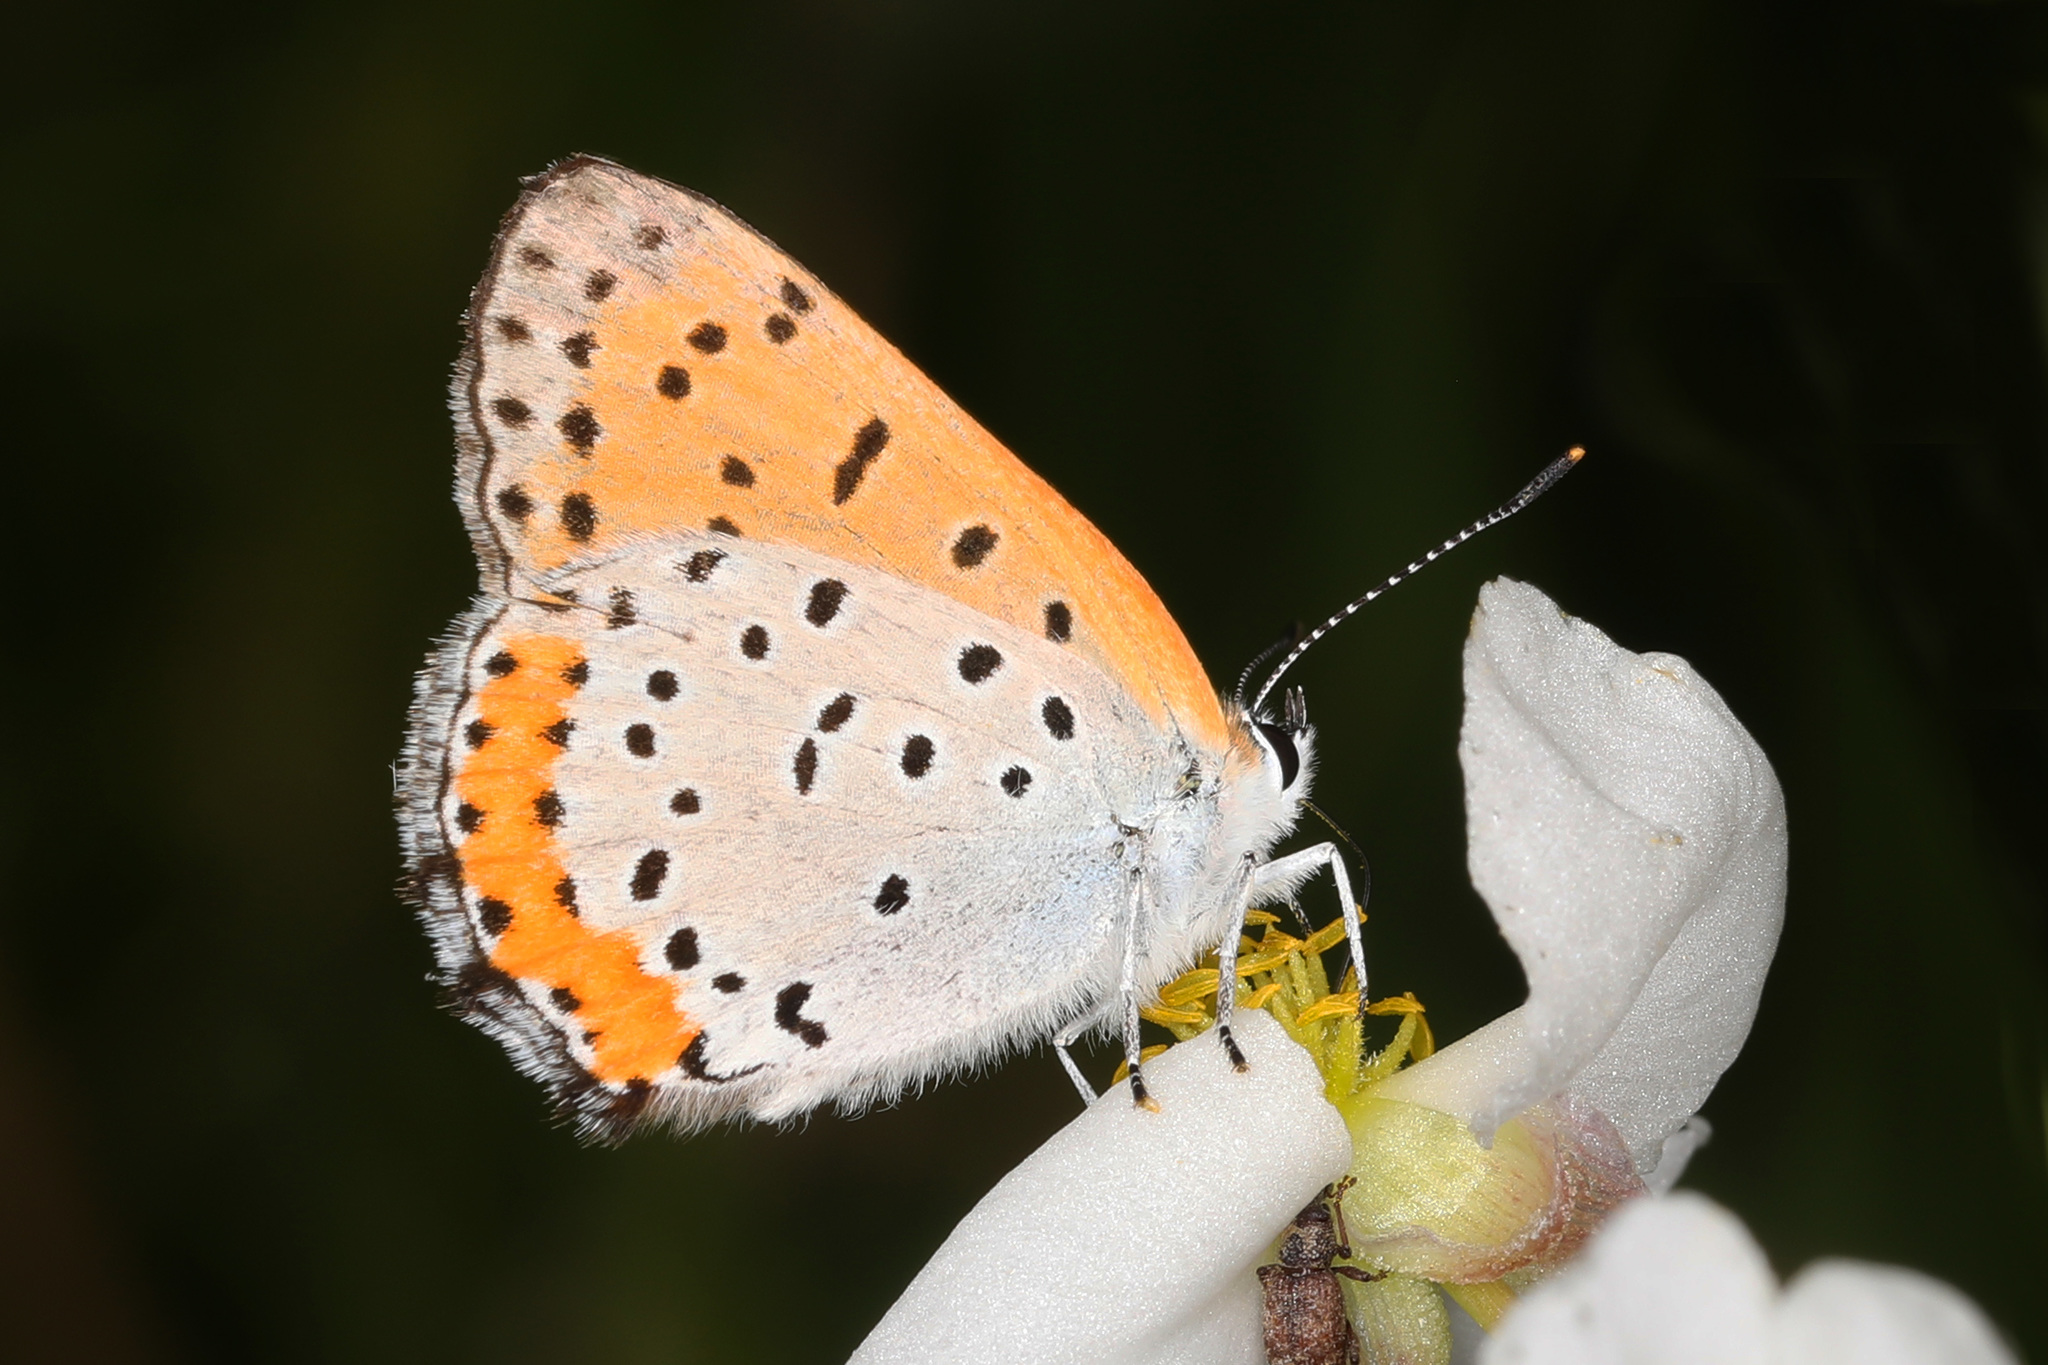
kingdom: Animalia
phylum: Arthropoda
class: Insecta
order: Lepidoptera
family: Lycaenidae
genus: Tharsalea
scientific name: Tharsalea hyllus
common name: Bronze copper
